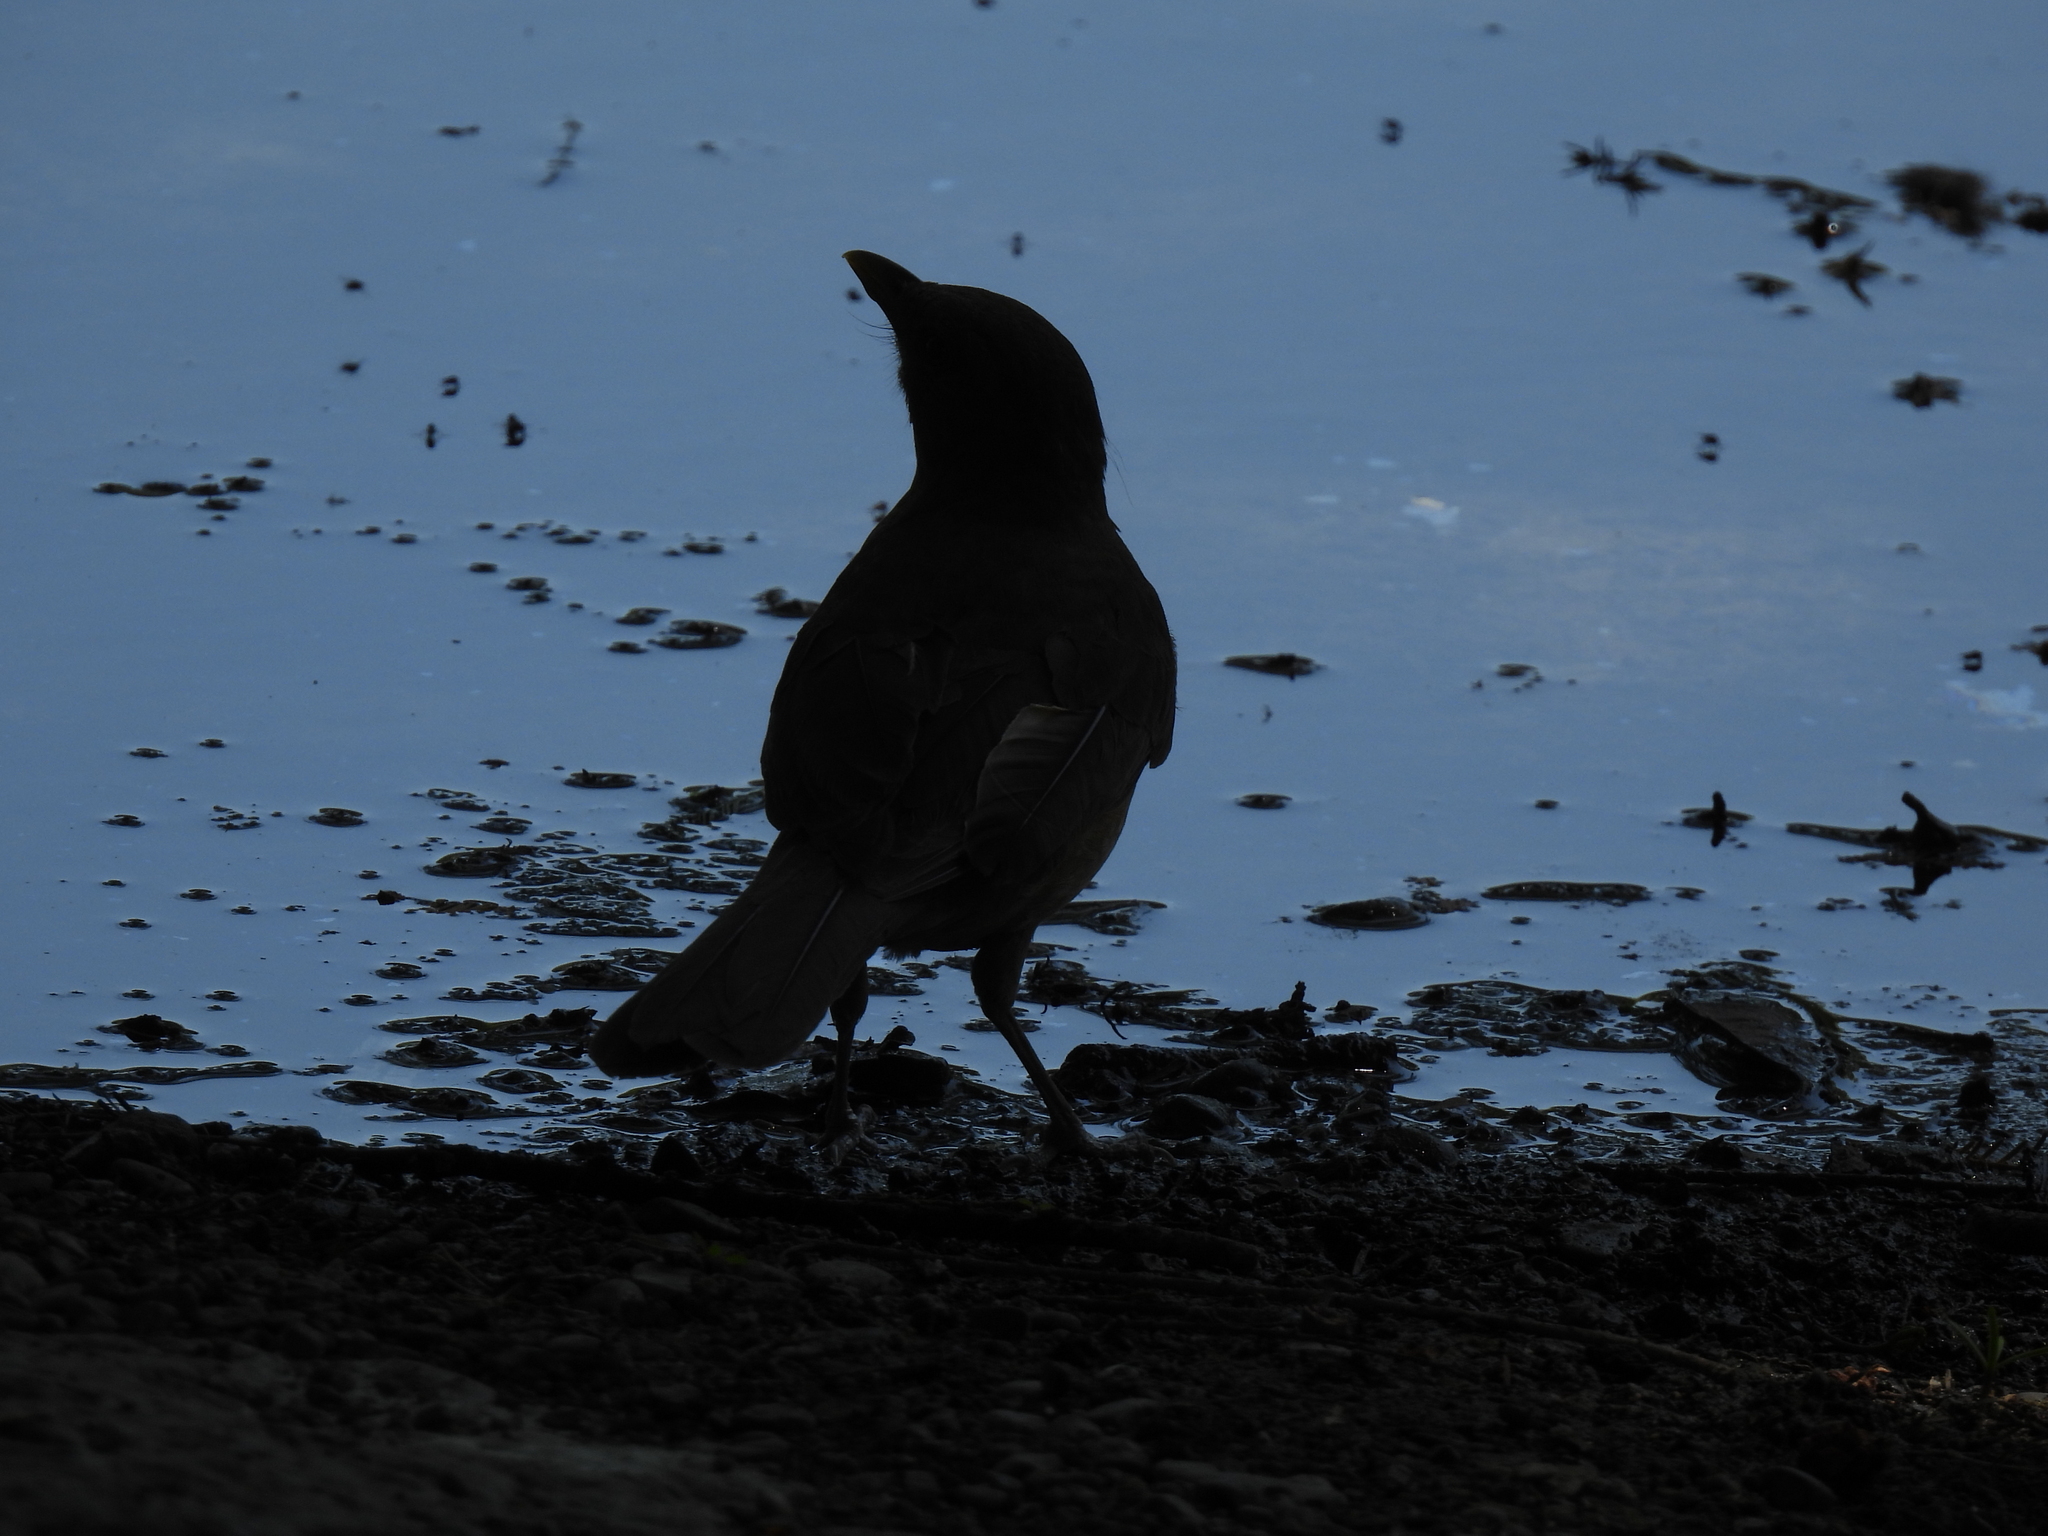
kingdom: Animalia
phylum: Chordata
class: Aves
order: Passeriformes
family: Turdidae
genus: Turdus
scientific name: Turdus grayi
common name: Clay-colored thrush
